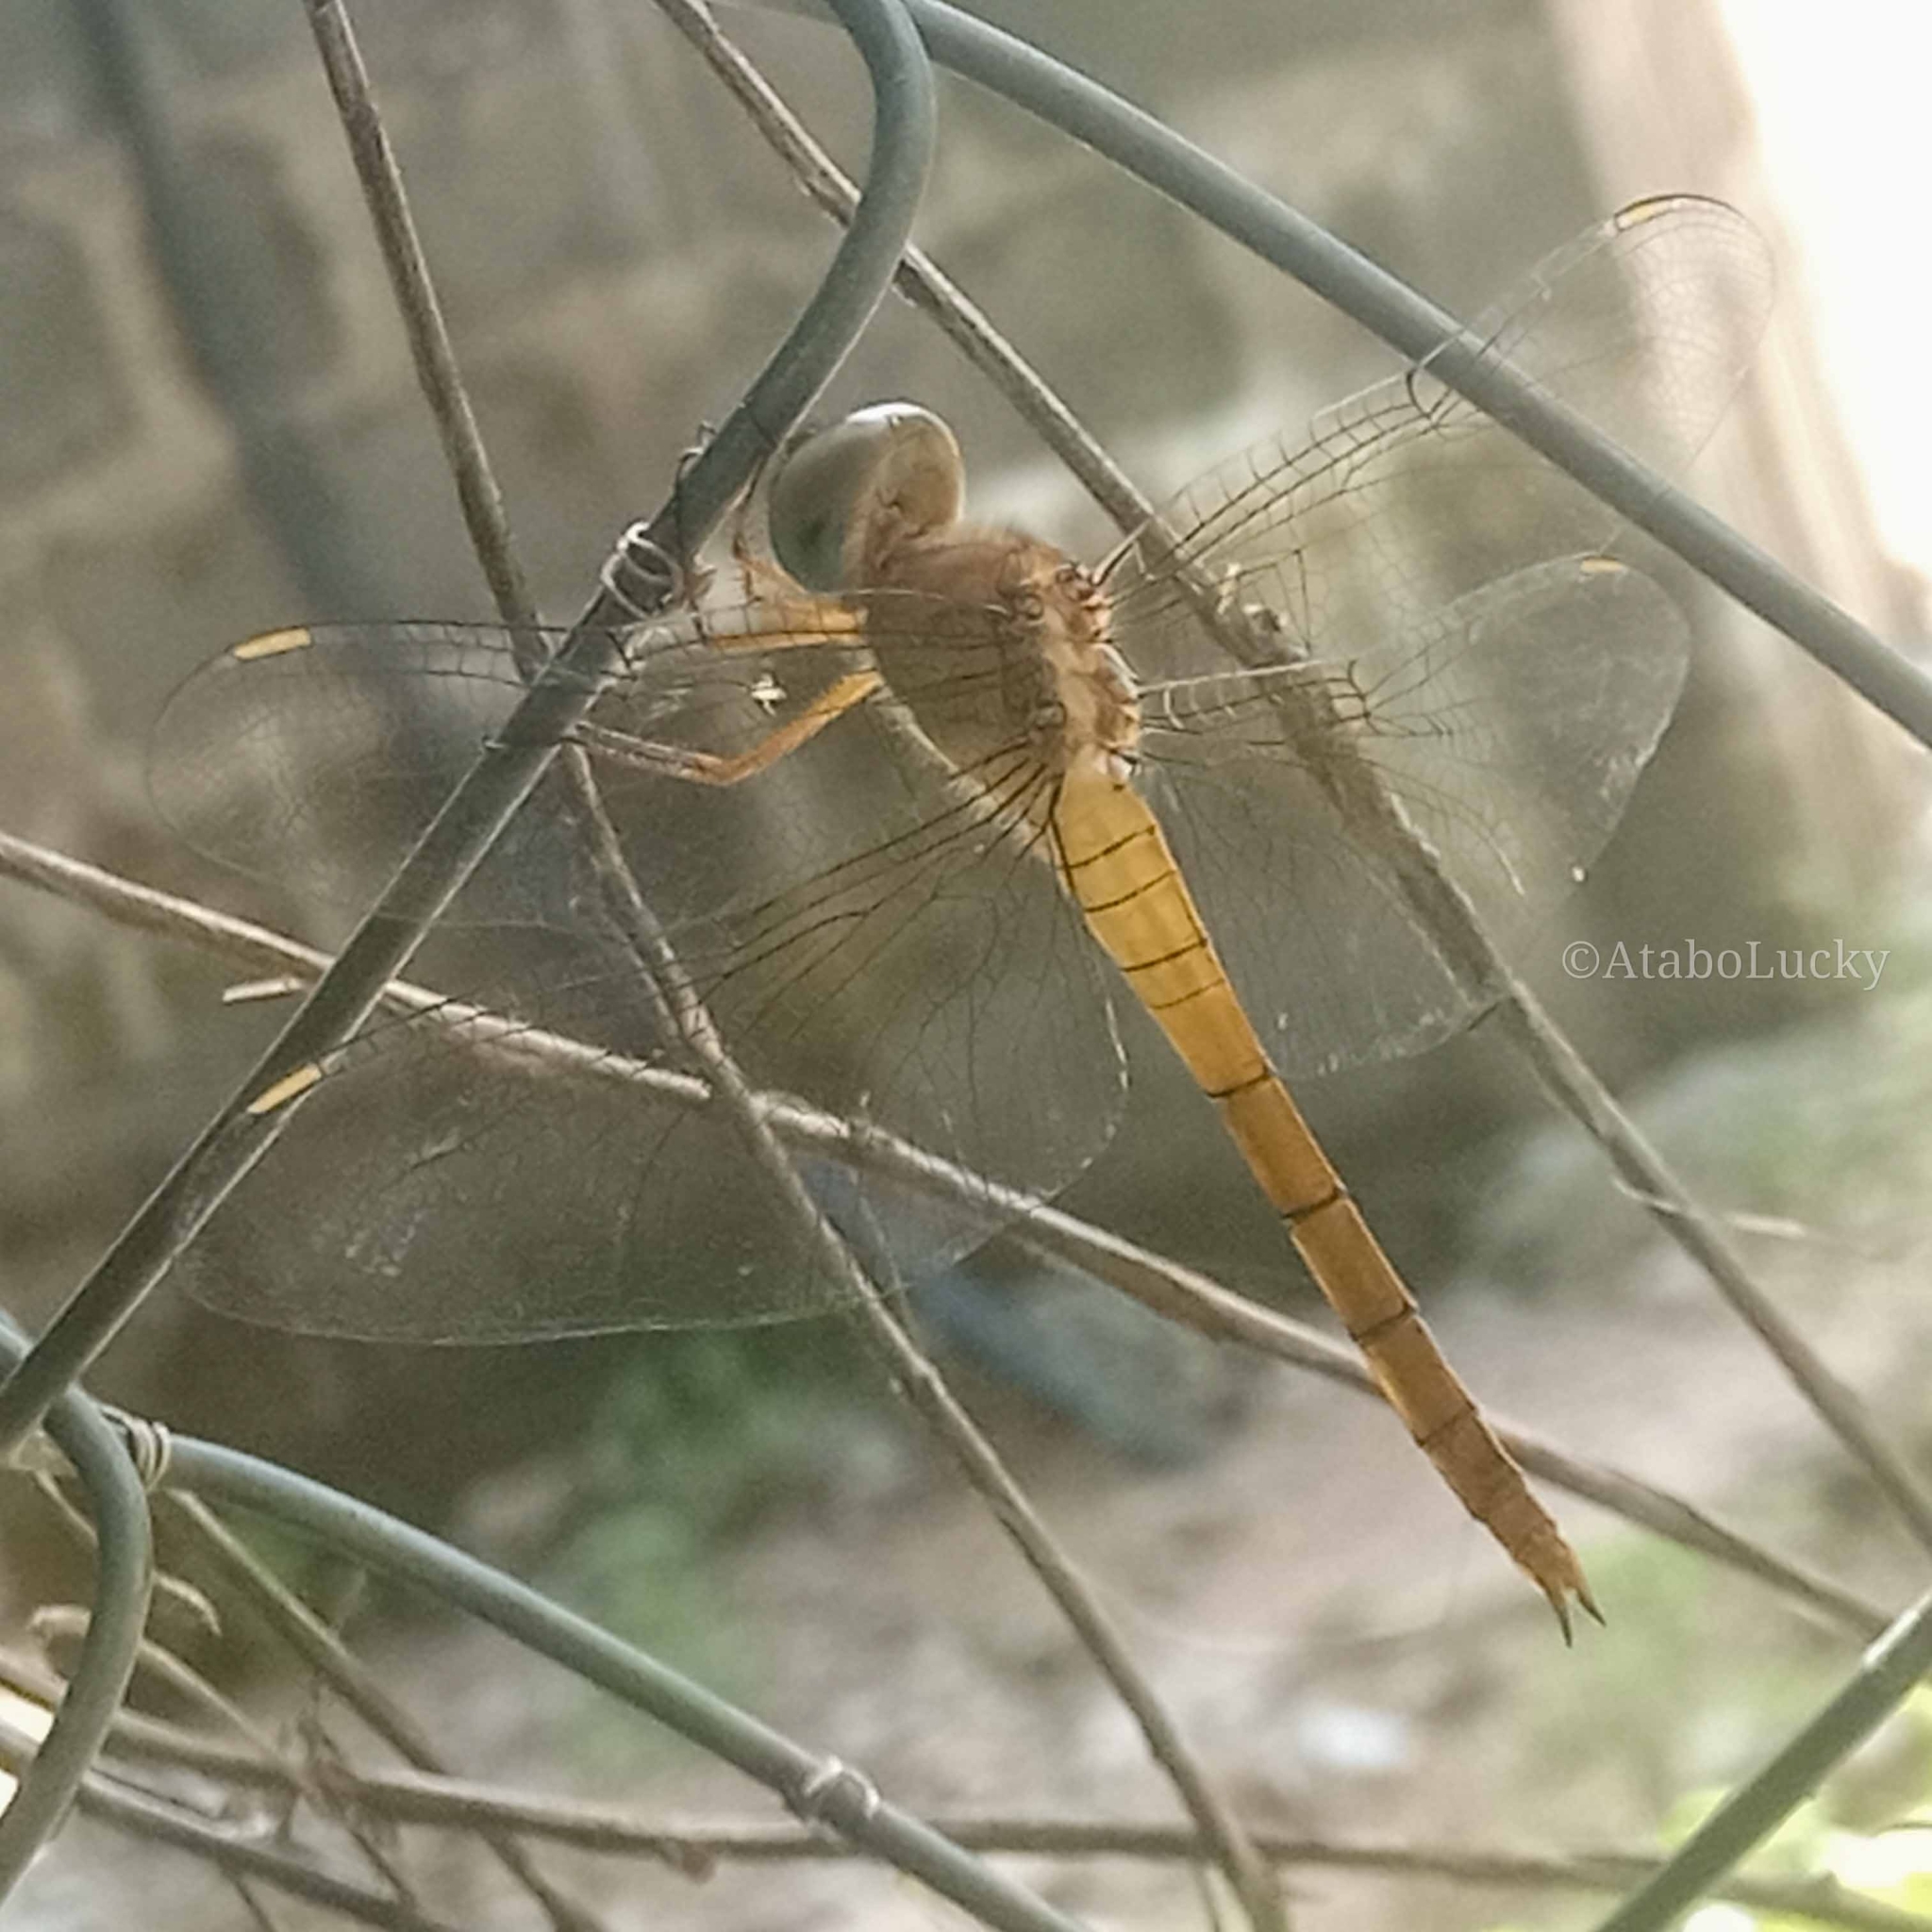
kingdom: Animalia
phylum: Arthropoda
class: Insecta
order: Odonata
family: Libellulidae
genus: Tholymis
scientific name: Tholymis tillarga
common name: Coral-tailed cloud wing
